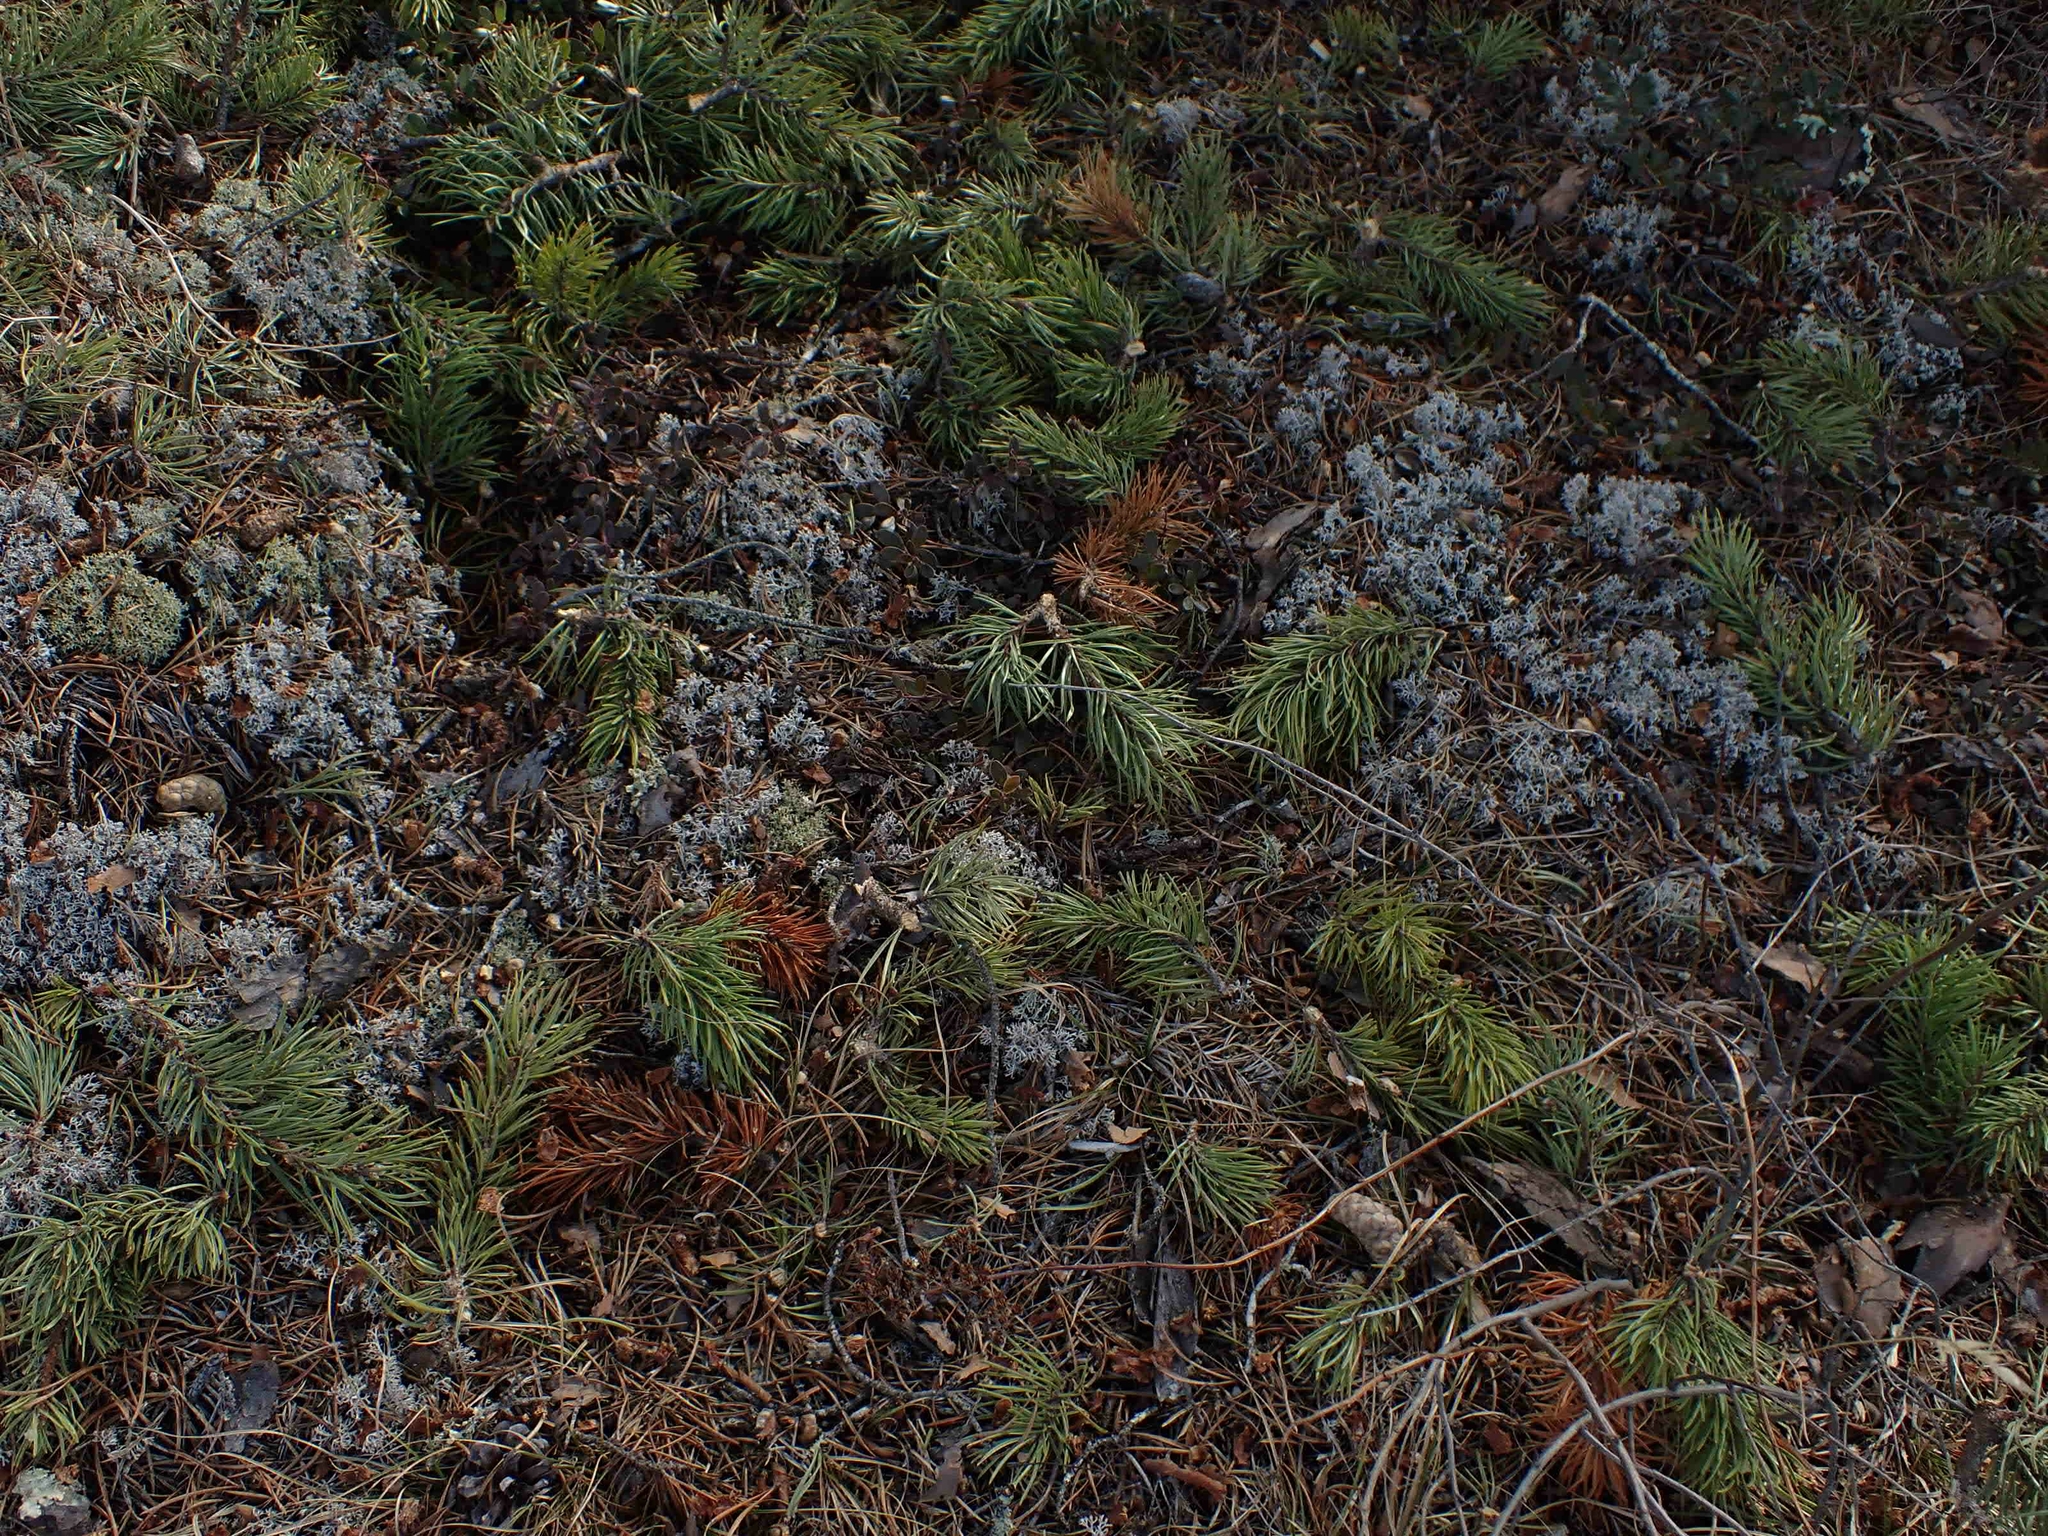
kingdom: Plantae
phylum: Tracheophyta
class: Pinopsida
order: Pinales
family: Pinaceae
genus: Pinus
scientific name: Pinus banksiana
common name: Jack pine
